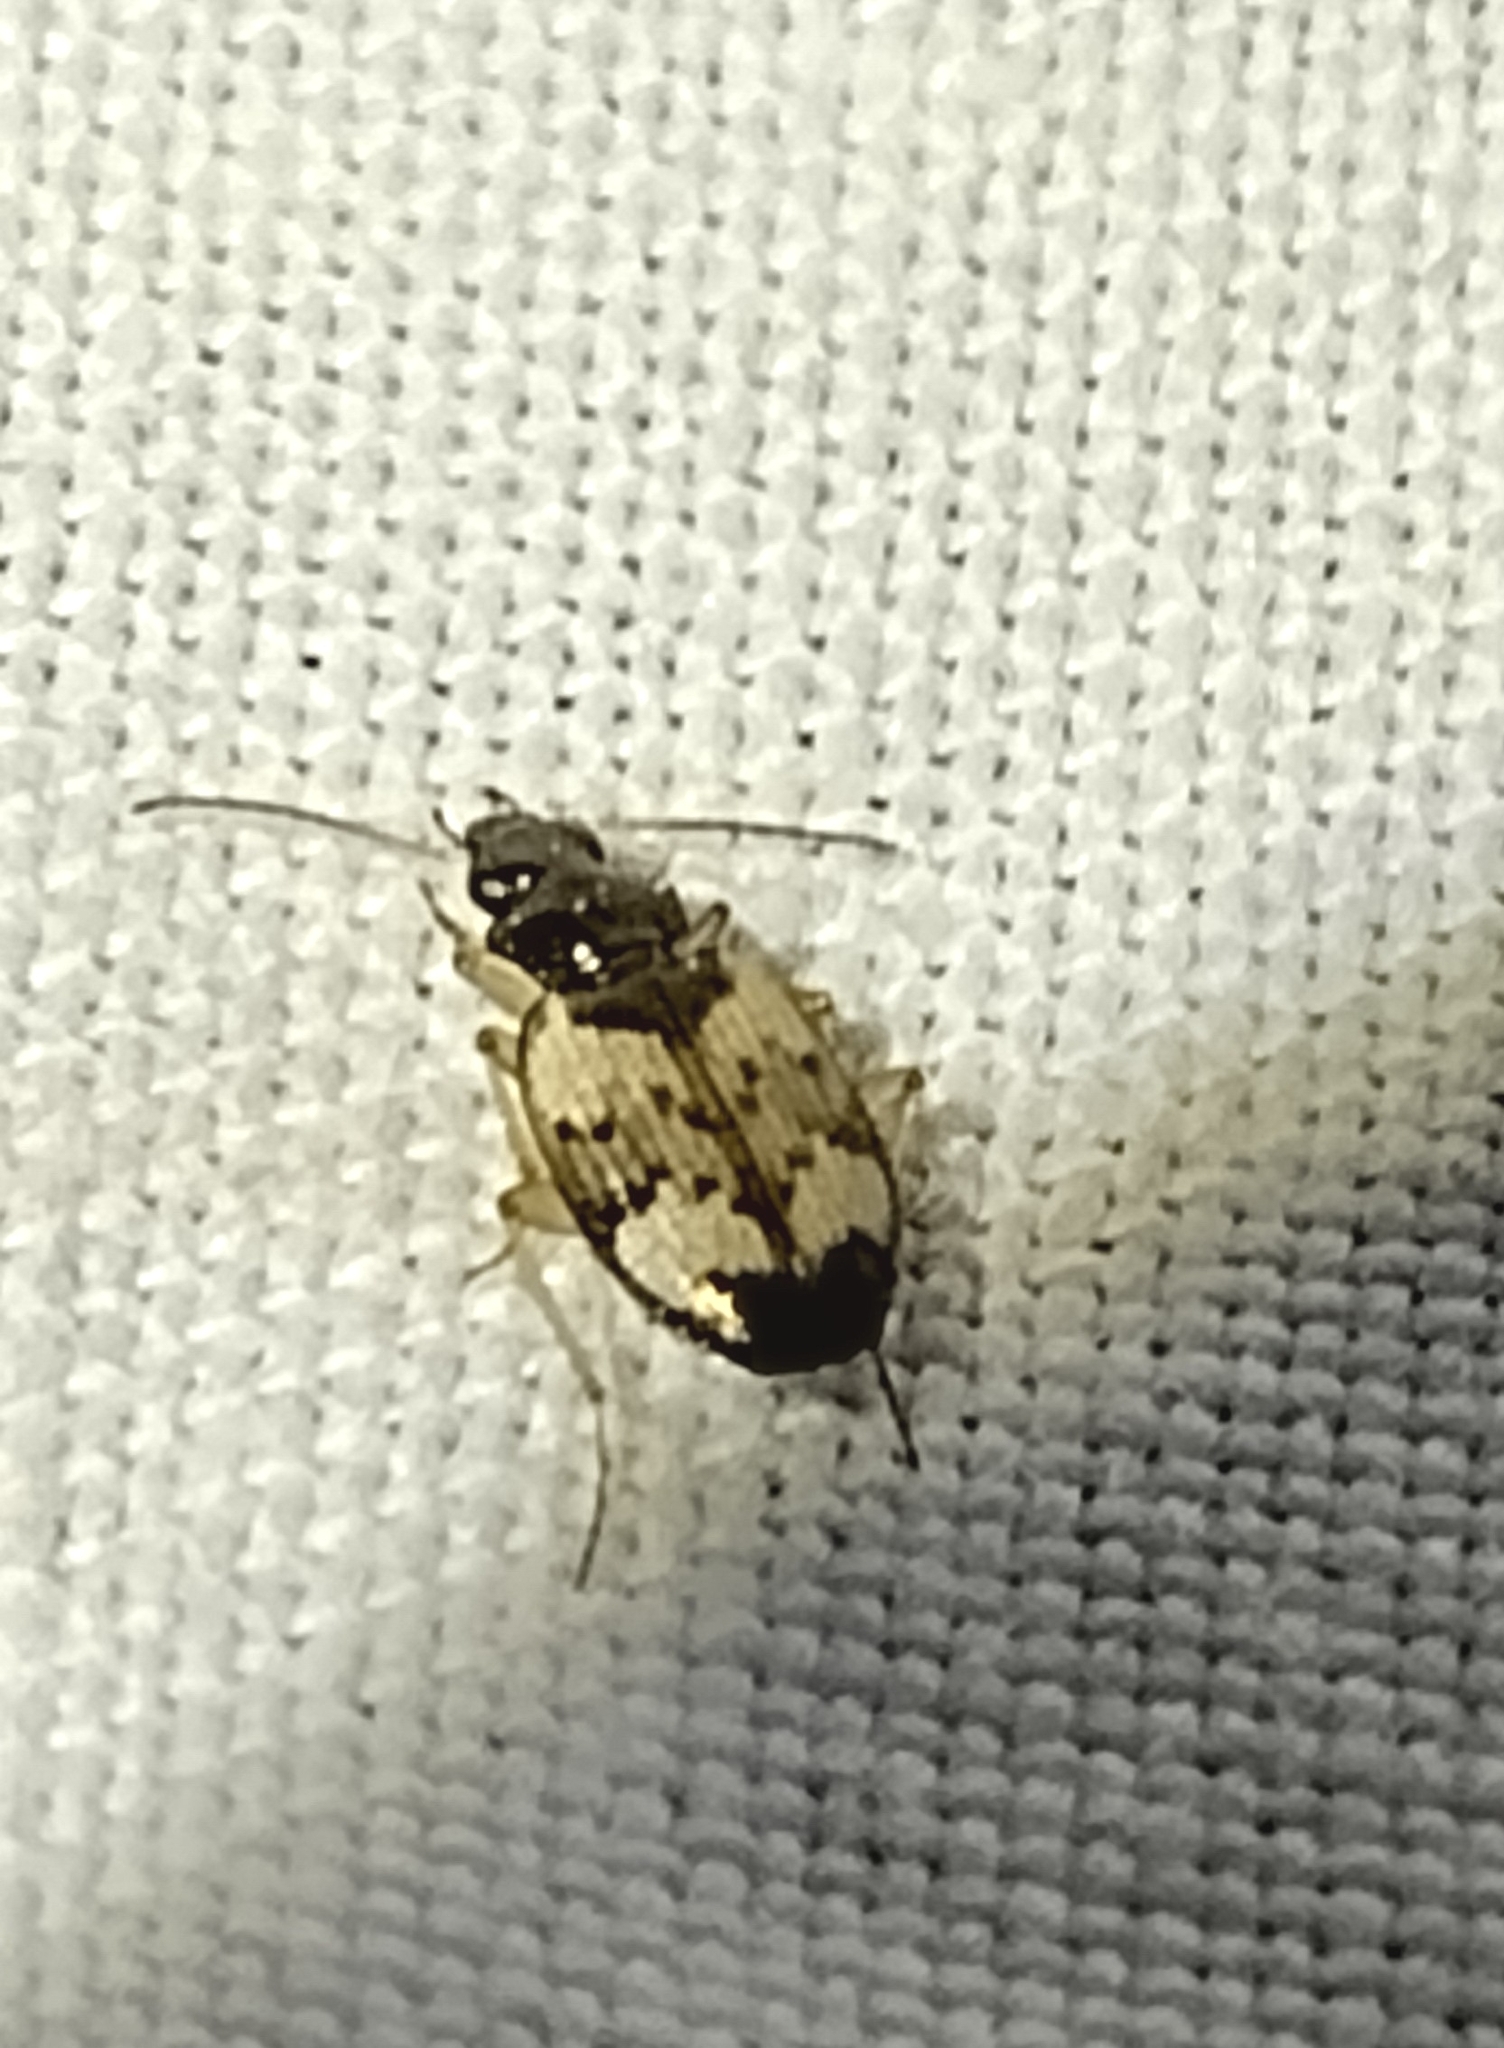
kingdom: Animalia
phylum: Arthropoda
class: Insecta
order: Coleoptera
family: Carabidae
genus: Tetragonoderus
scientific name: Tetragonoderus fasciatus
